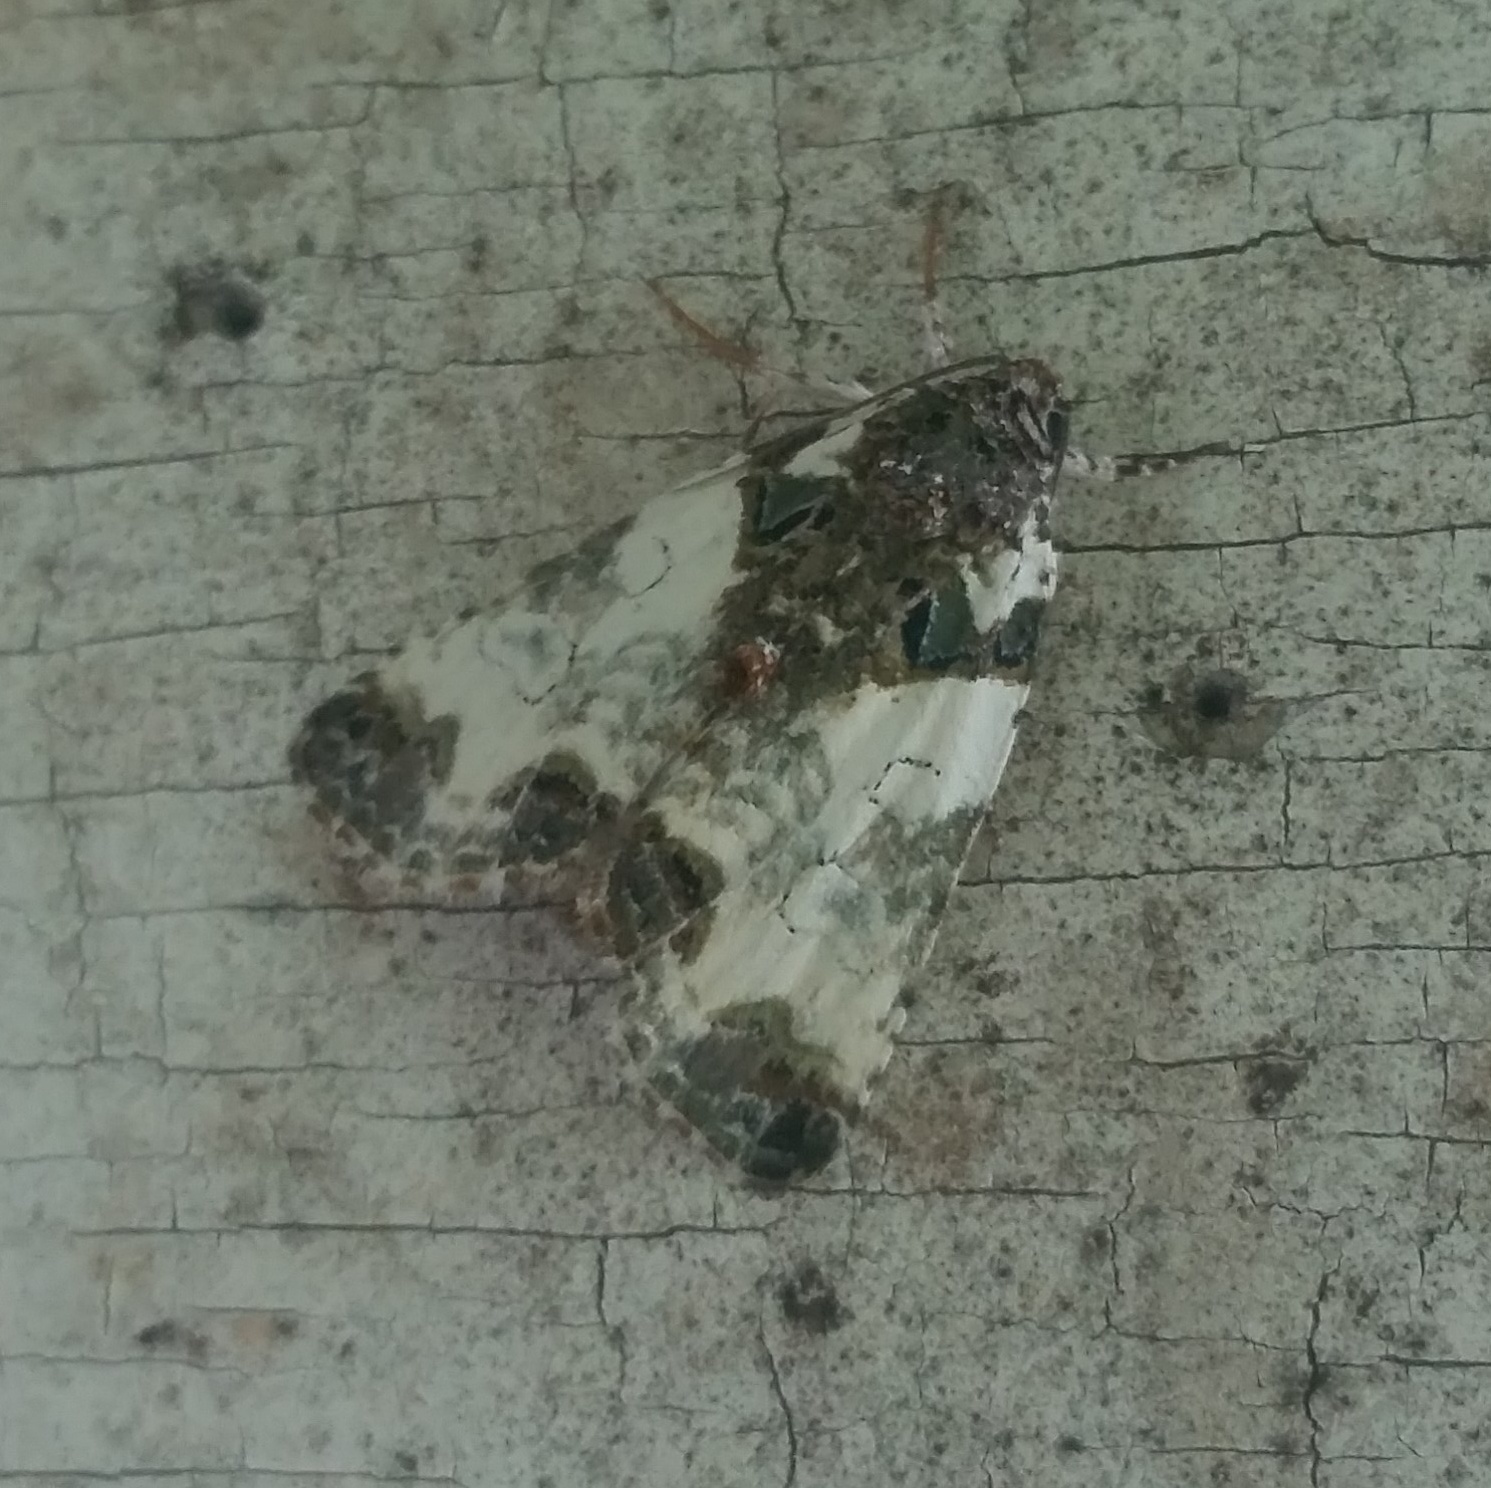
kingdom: Animalia
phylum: Arthropoda
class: Insecta
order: Lepidoptera
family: Noctuidae
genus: Cerma
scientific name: Cerma cerintha
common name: Tufted bird-dropping moth
